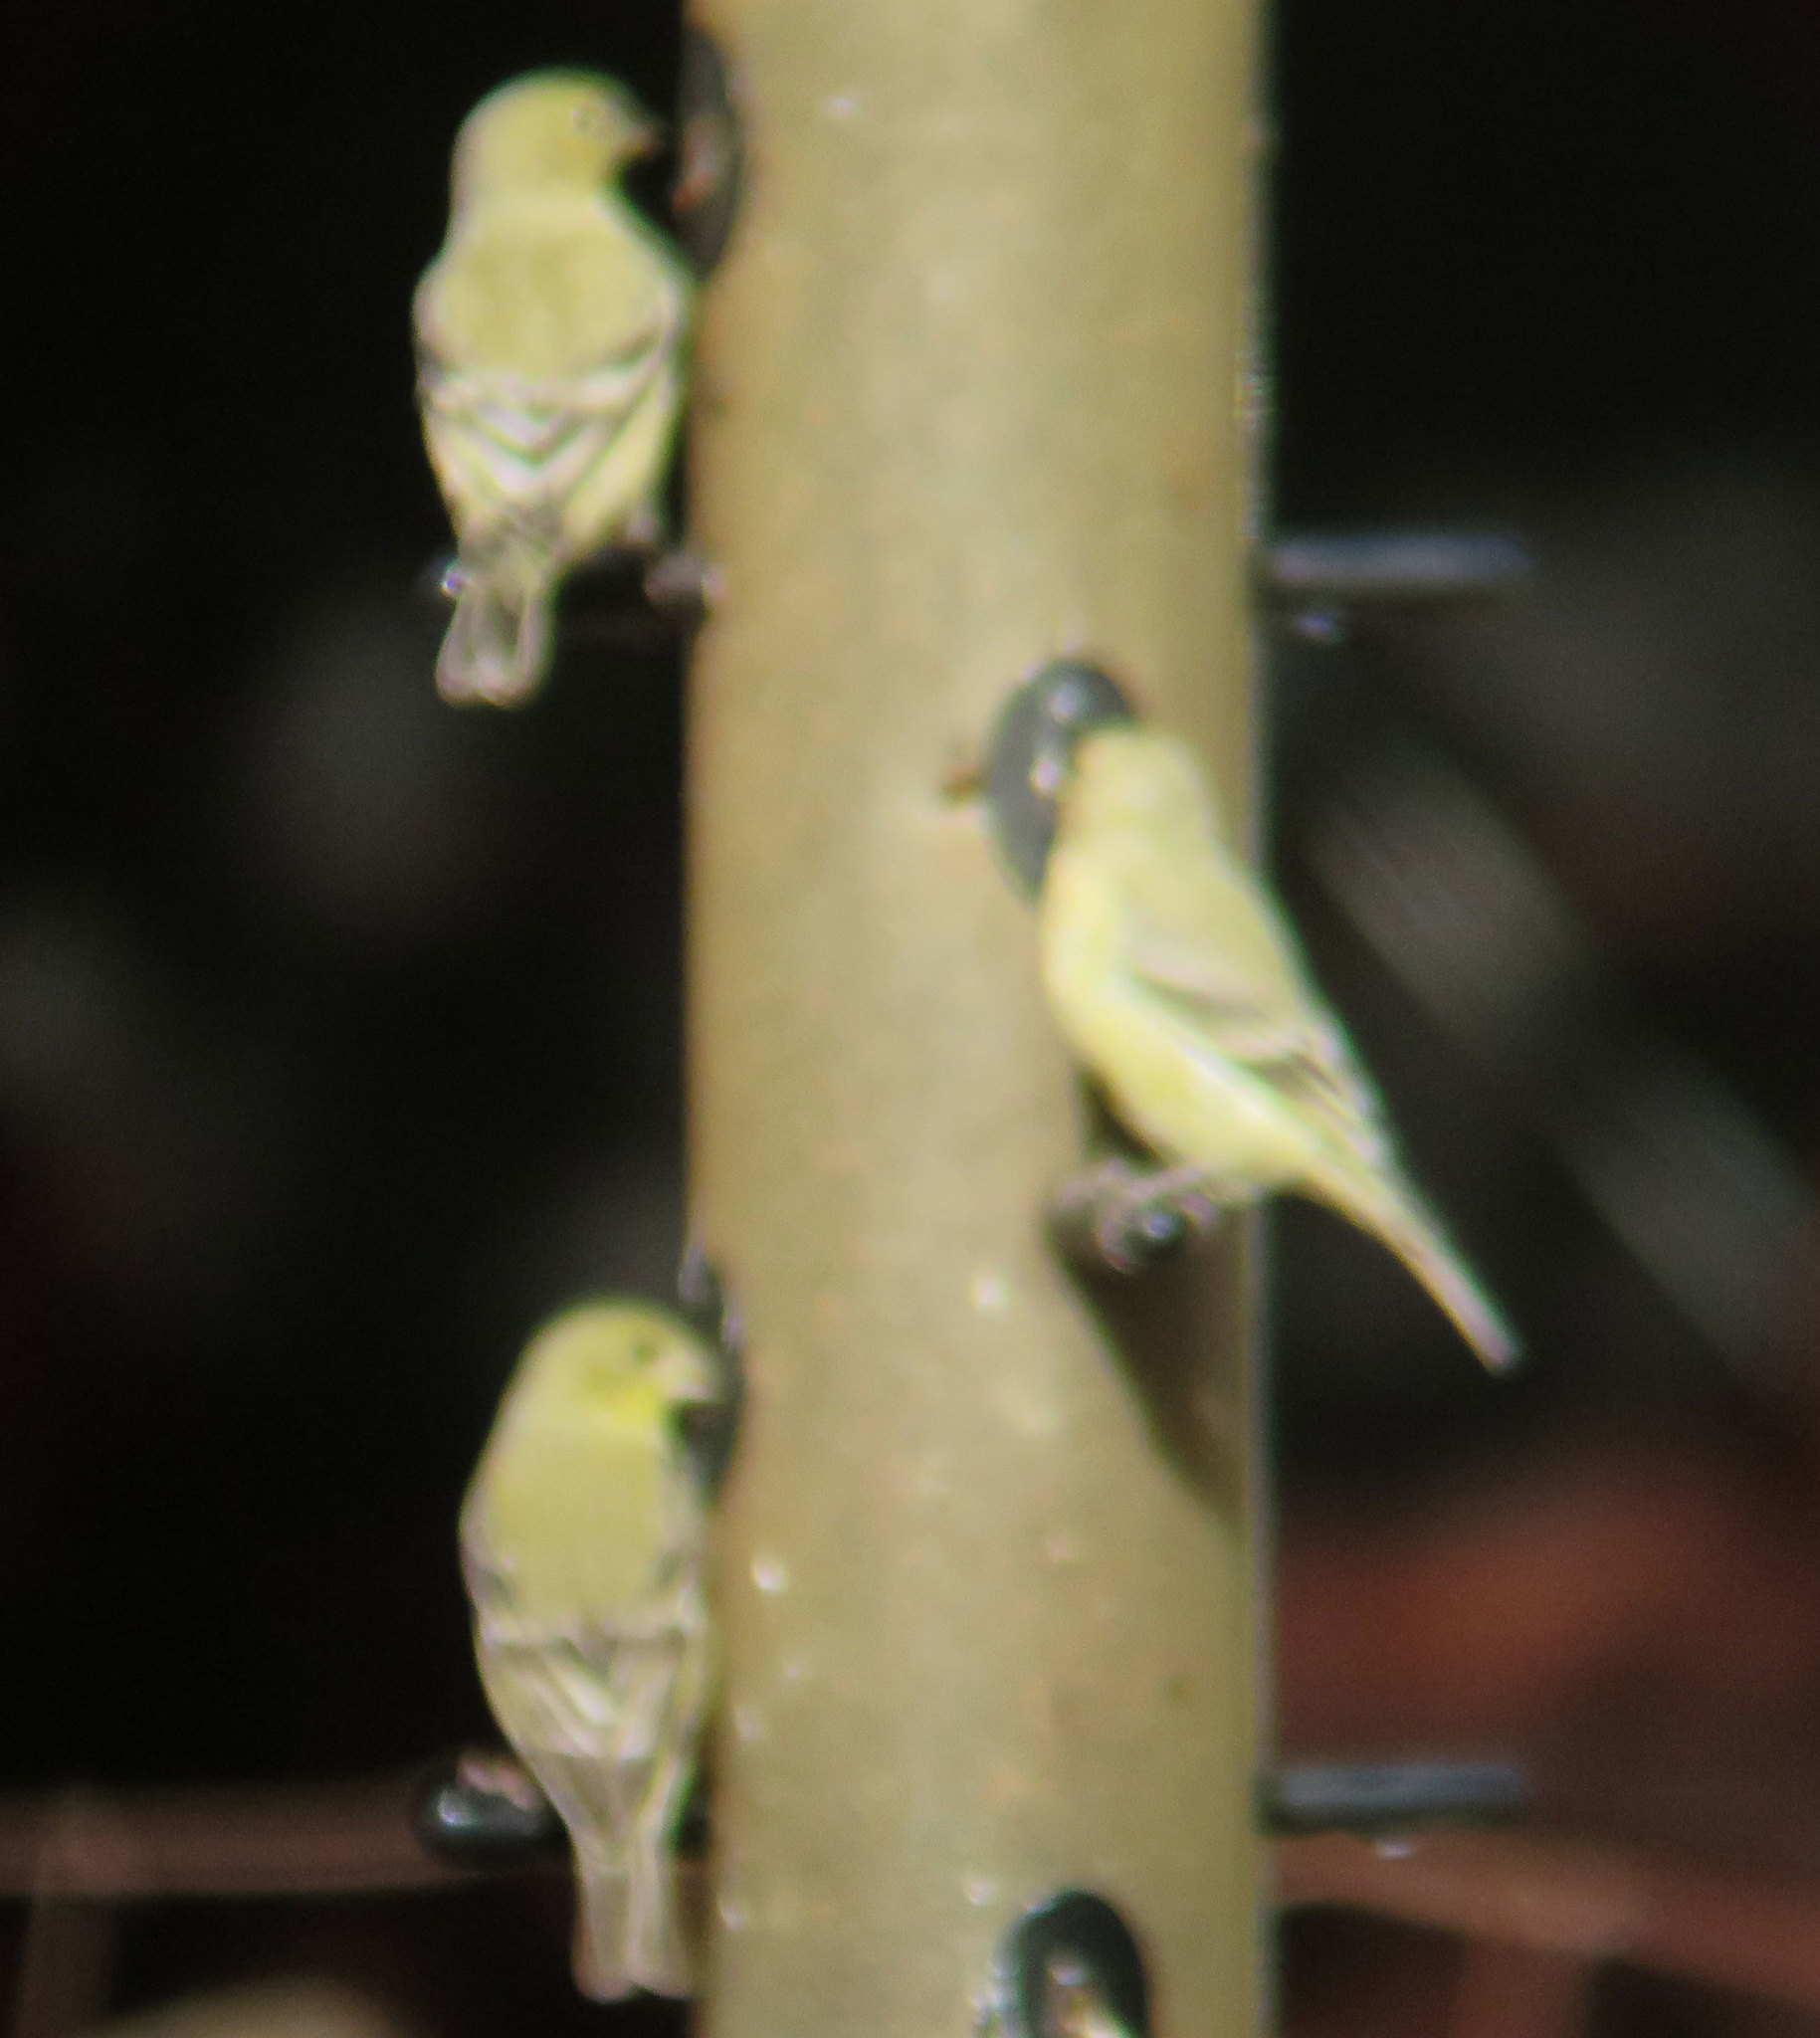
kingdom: Animalia
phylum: Chordata
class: Aves
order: Passeriformes
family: Fringillidae
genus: Spinus
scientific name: Spinus psaltria
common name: Lesser goldfinch
